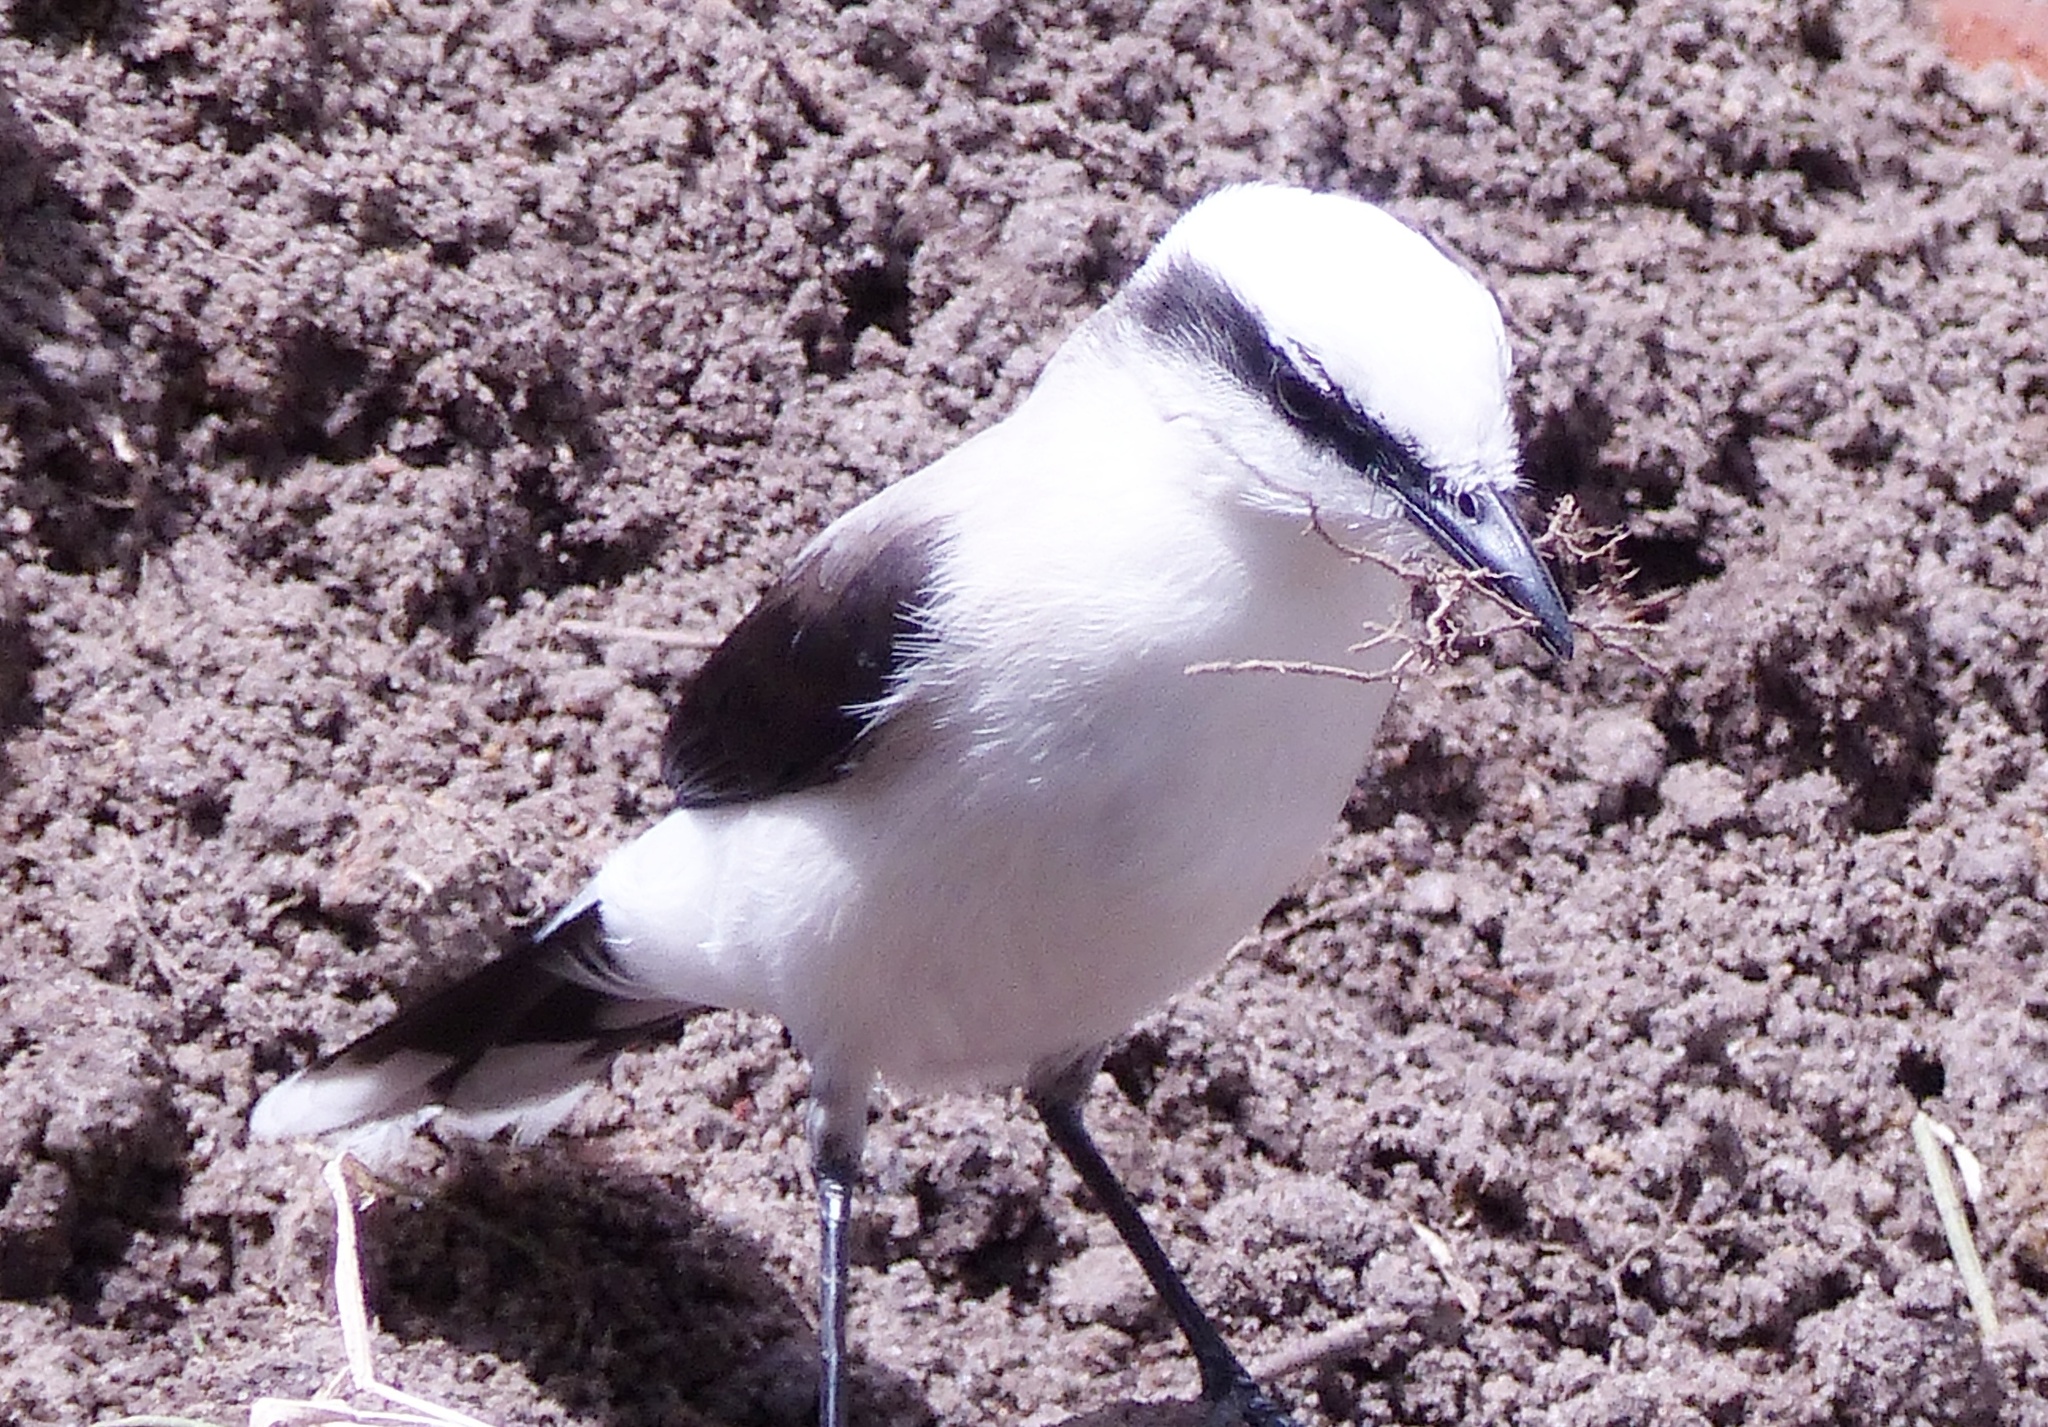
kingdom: Animalia
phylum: Chordata
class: Aves
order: Passeriformes
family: Tyrannidae
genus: Fluvicola
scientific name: Fluvicola nengeta
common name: Masked water tyrant
